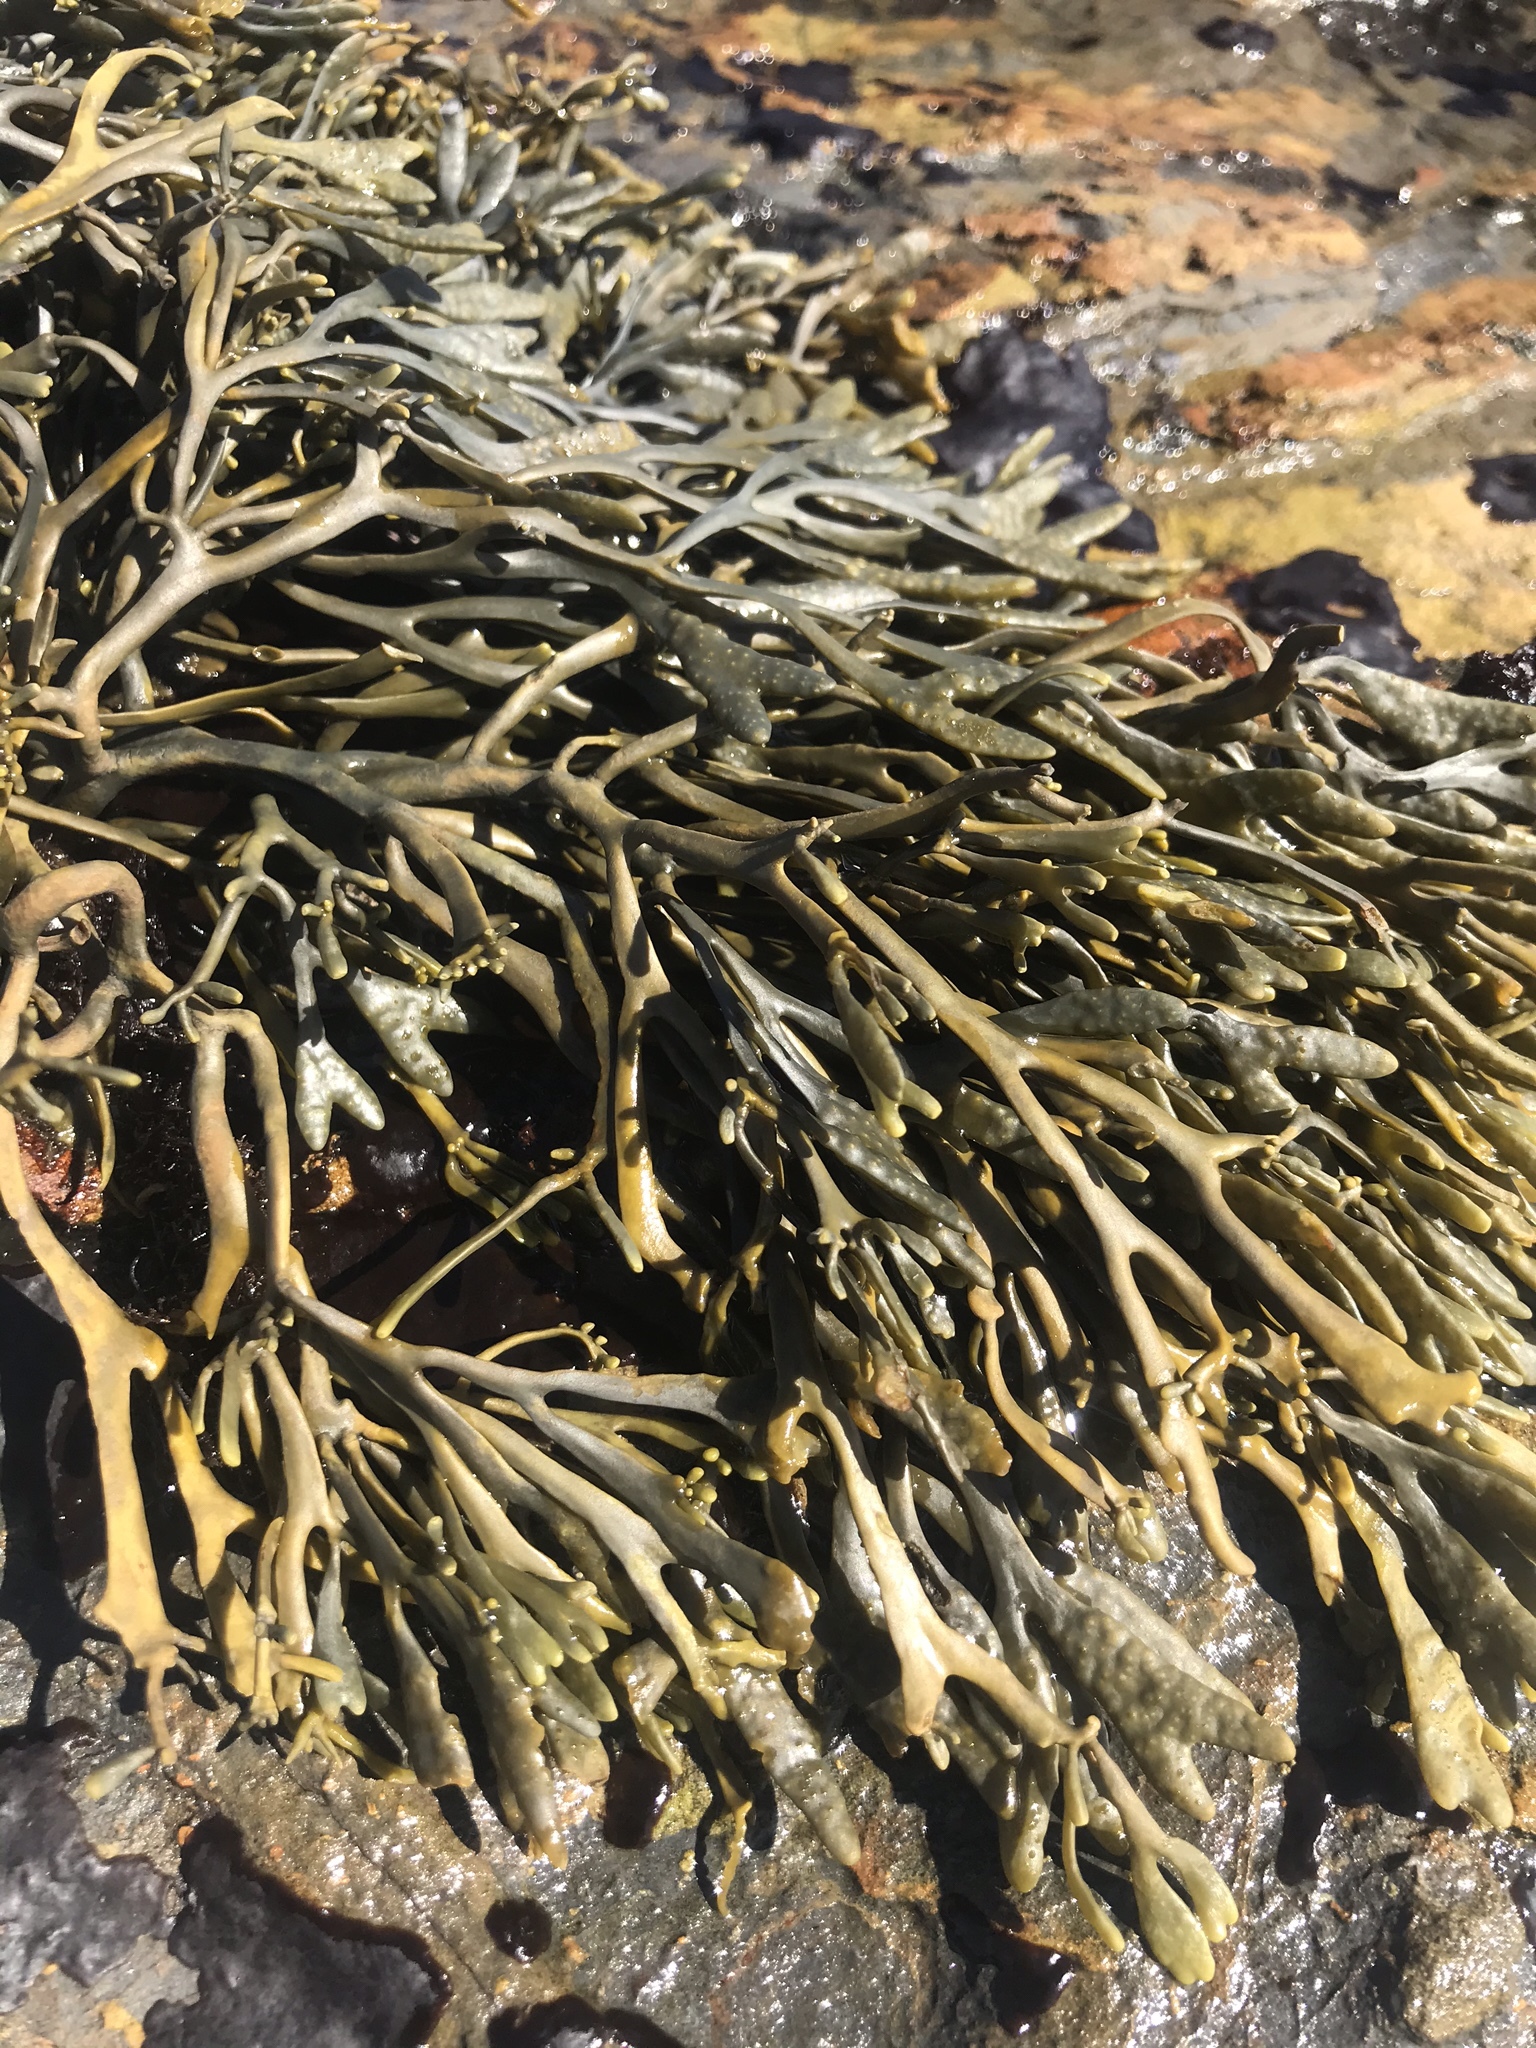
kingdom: Chromista
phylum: Ochrophyta
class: Phaeophyceae
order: Fucales
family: Fucaceae
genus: Silvetia
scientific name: Silvetia
